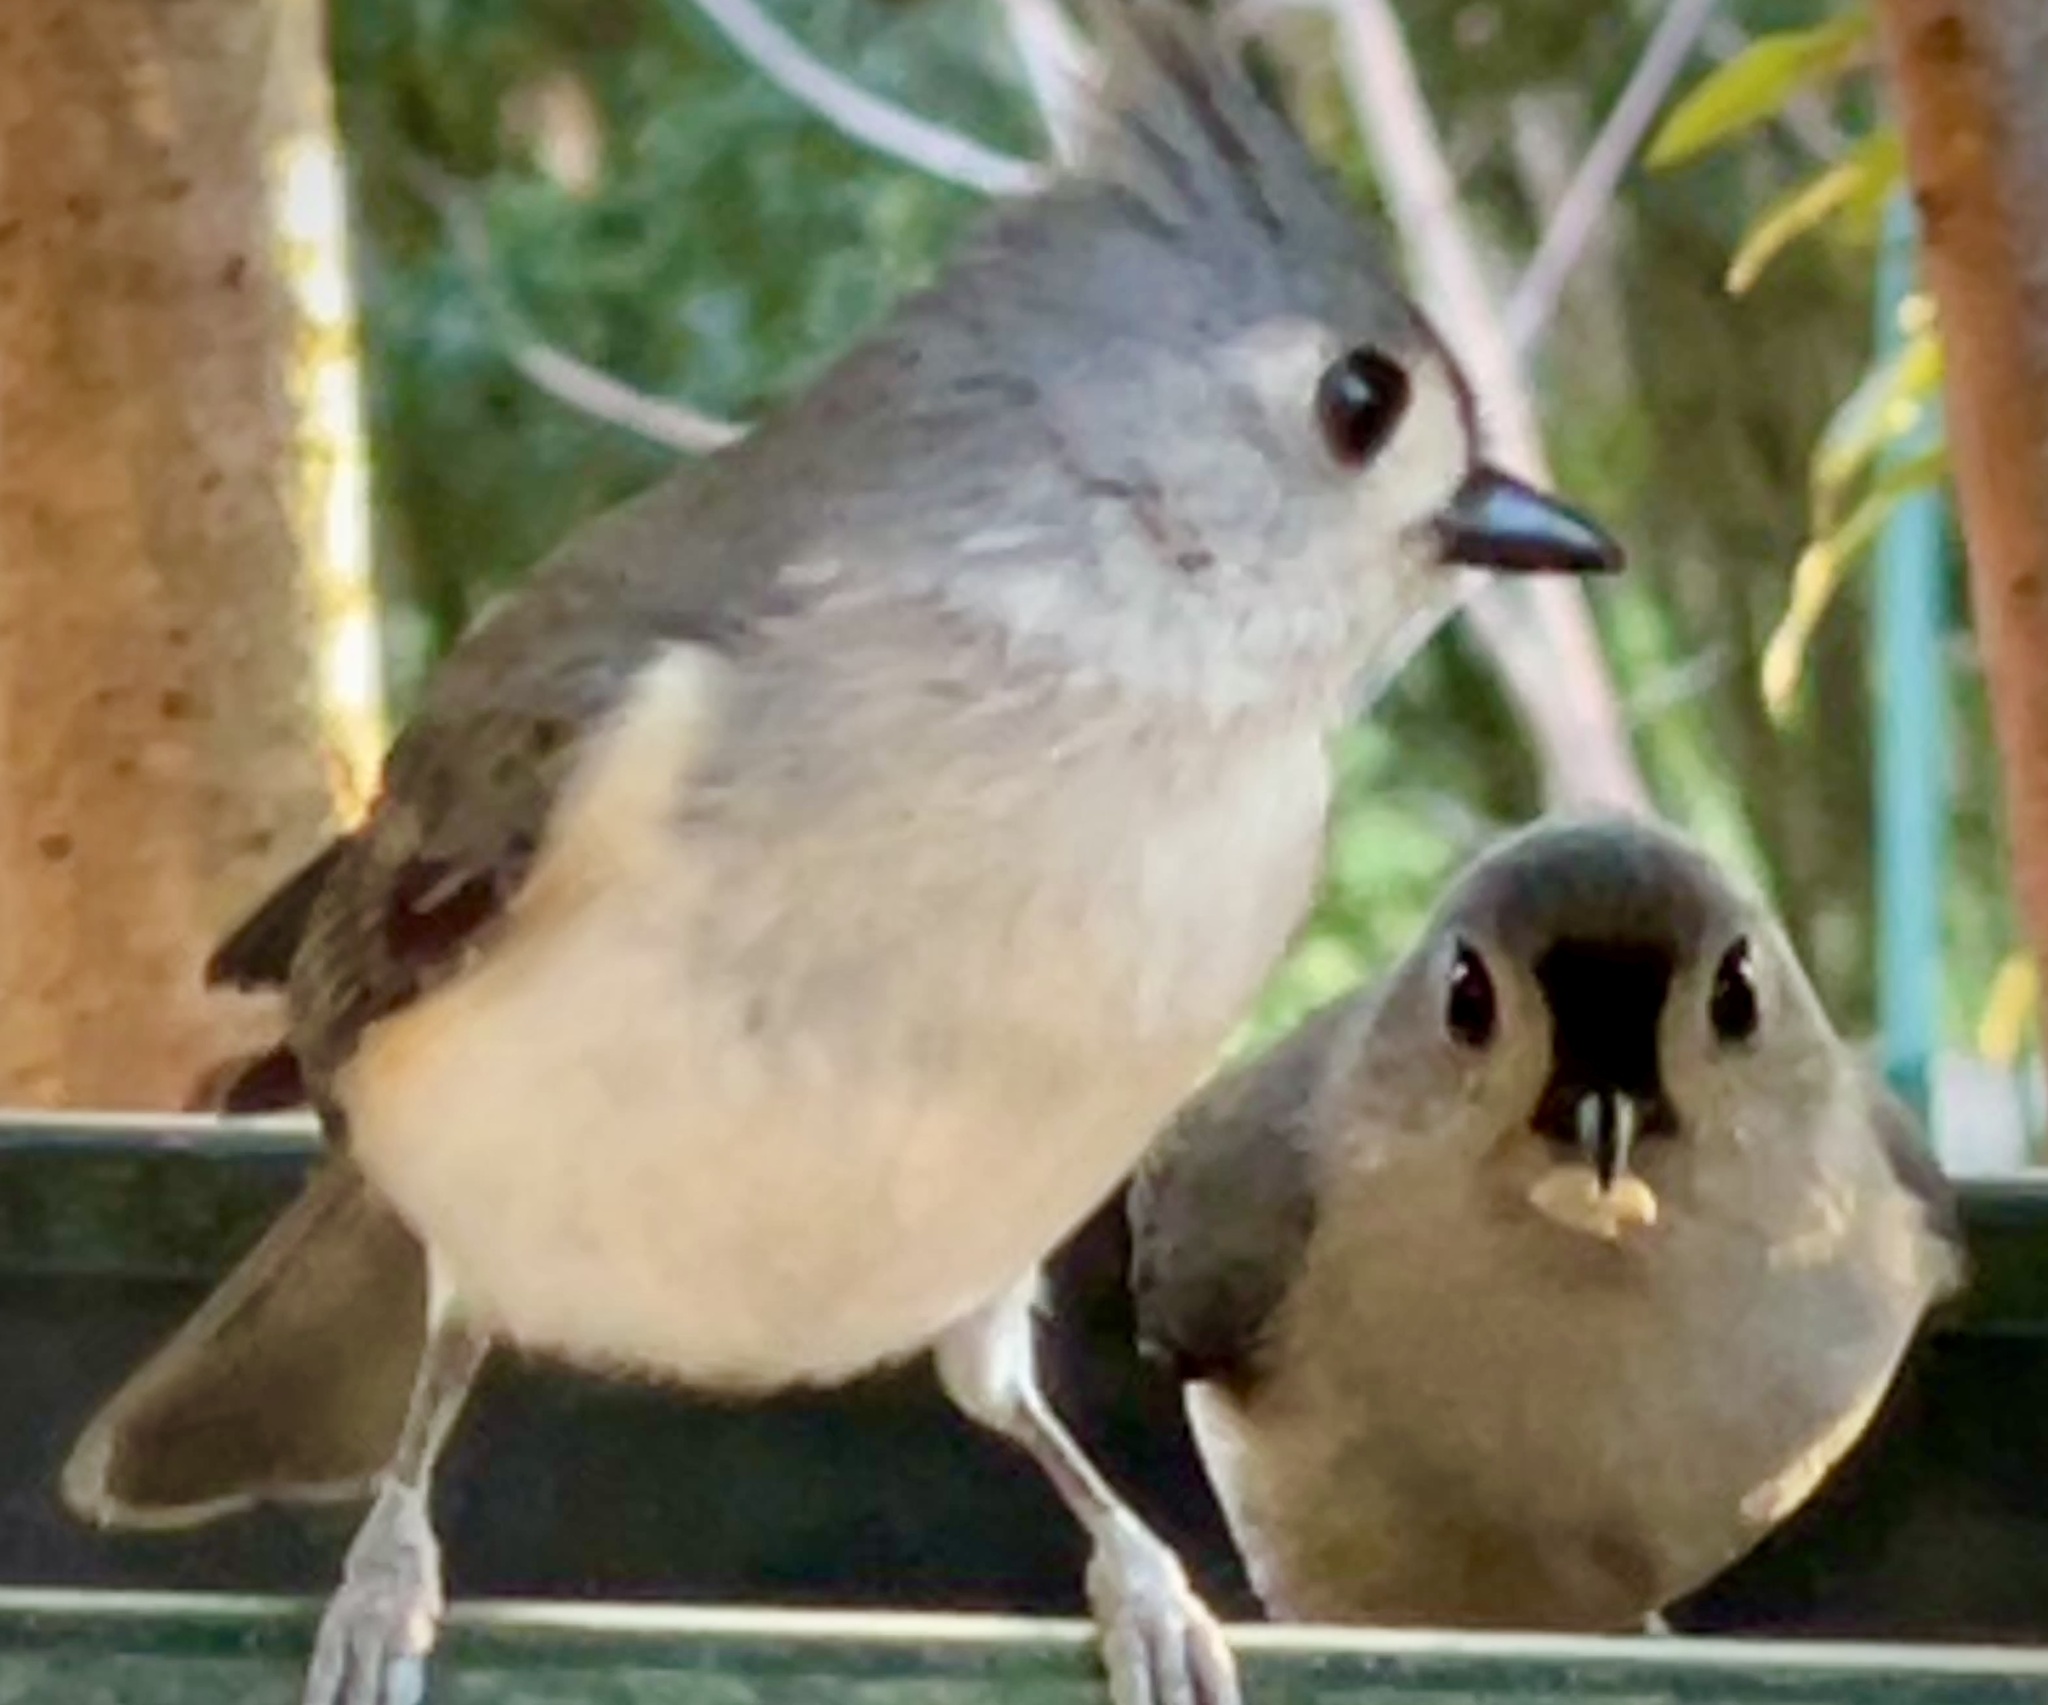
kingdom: Animalia
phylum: Chordata
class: Aves
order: Passeriformes
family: Paridae
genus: Baeolophus
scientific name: Baeolophus bicolor
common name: Tufted titmouse
